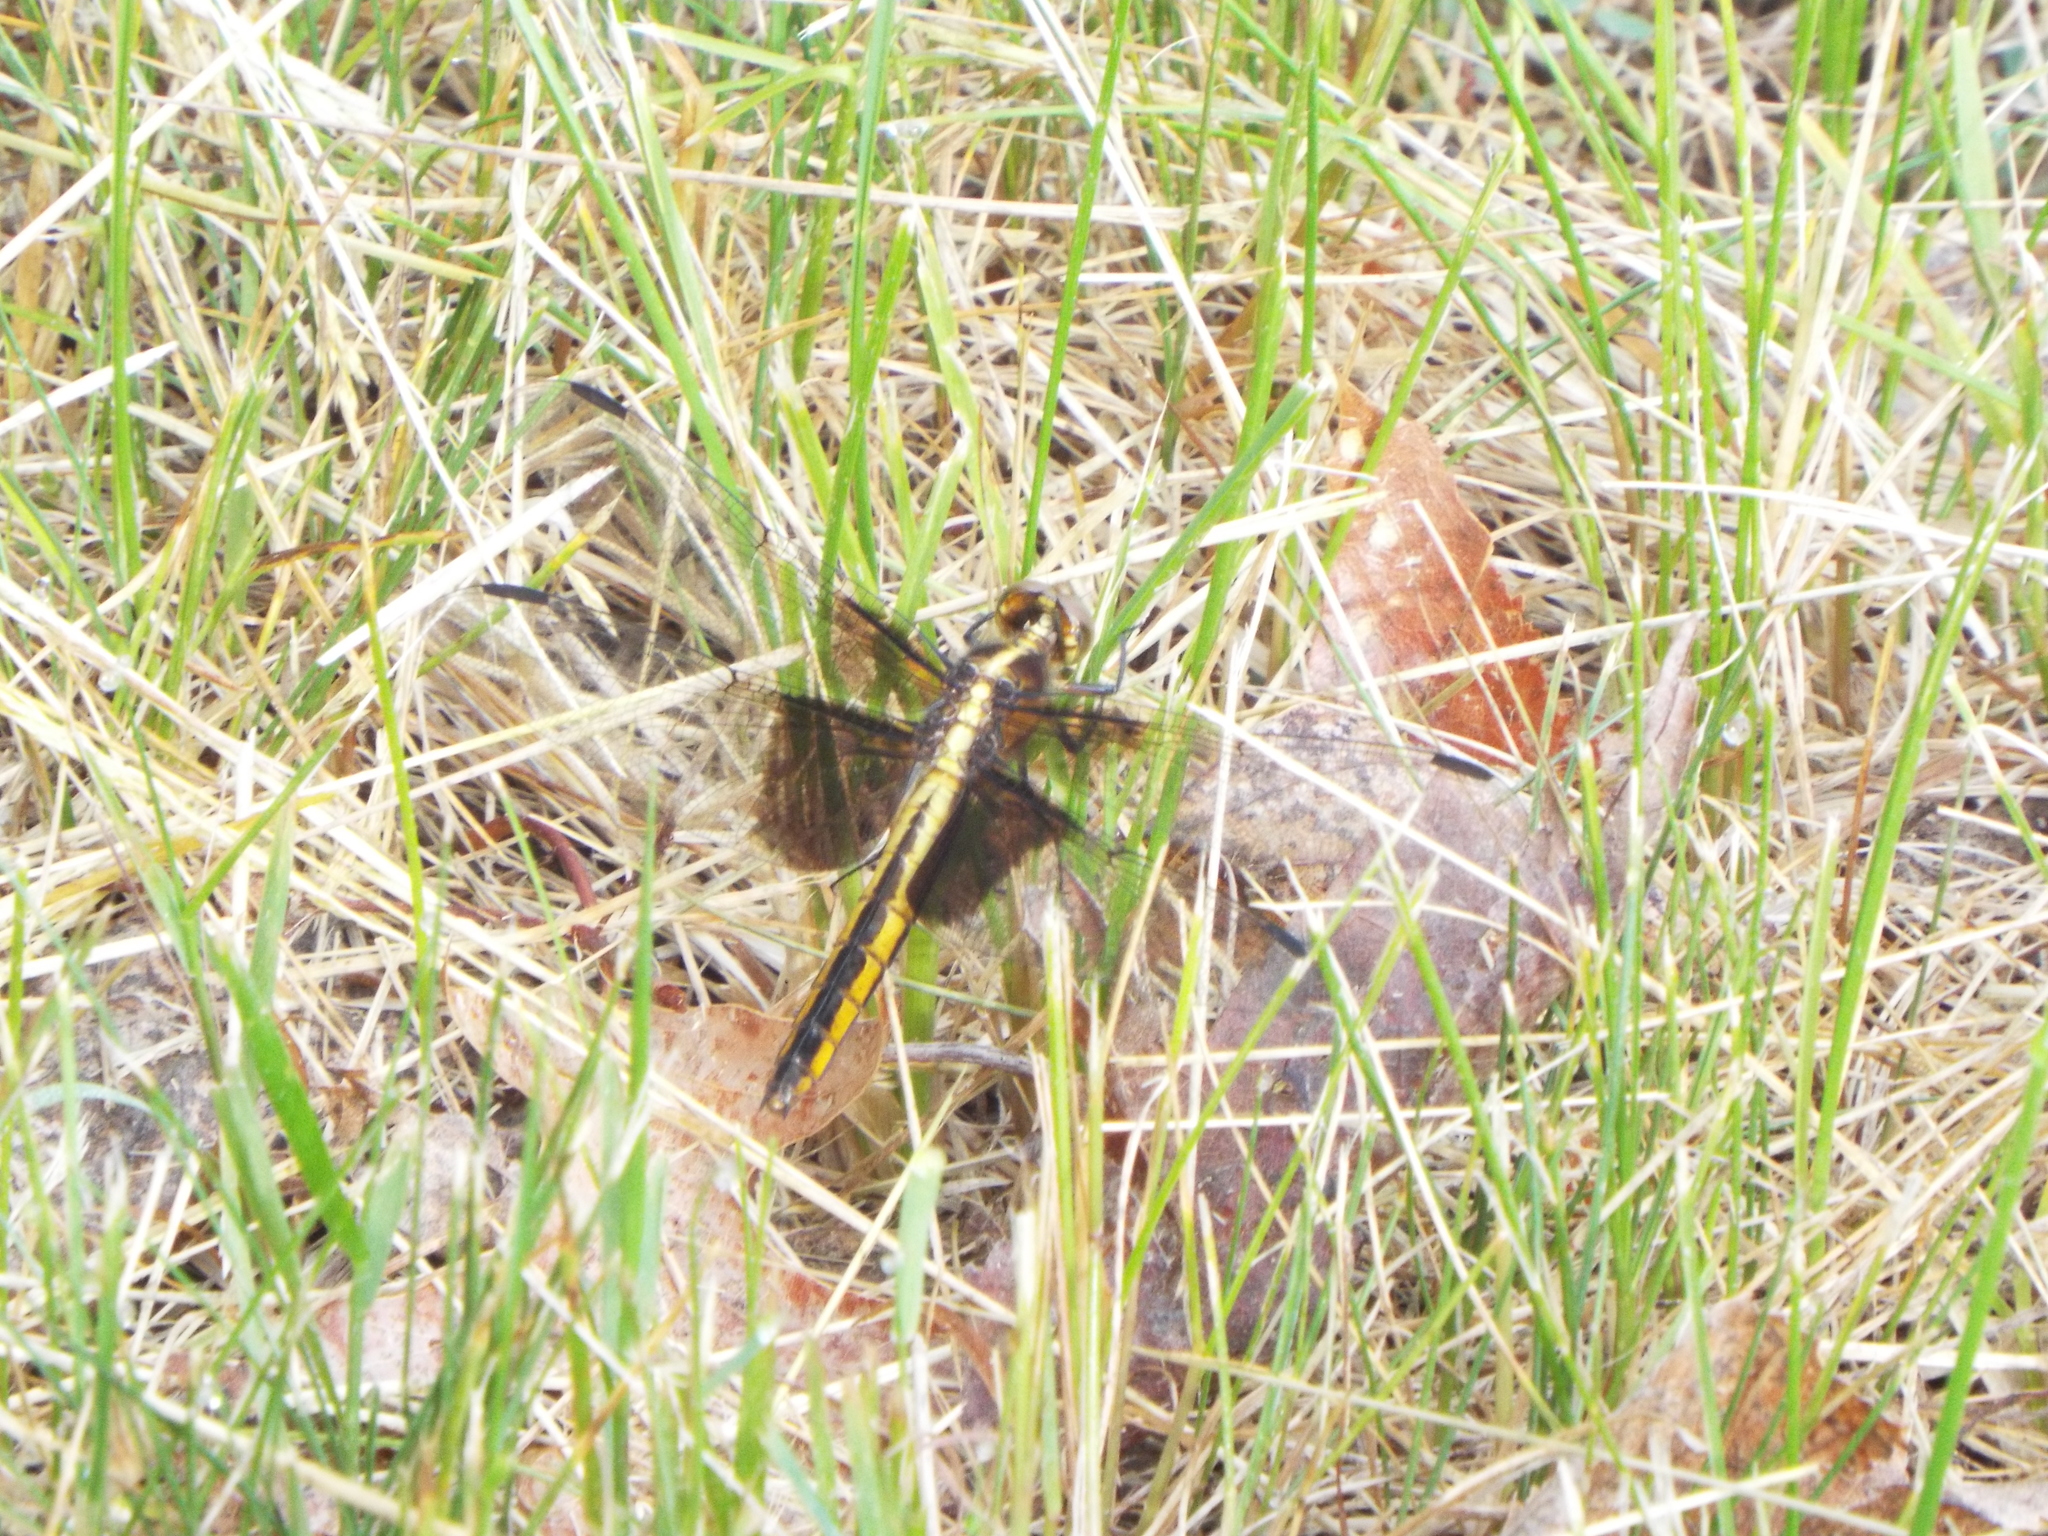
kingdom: Animalia
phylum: Arthropoda
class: Insecta
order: Odonata
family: Libellulidae
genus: Libellula
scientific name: Libellula luctuosa
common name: Widow skimmer
